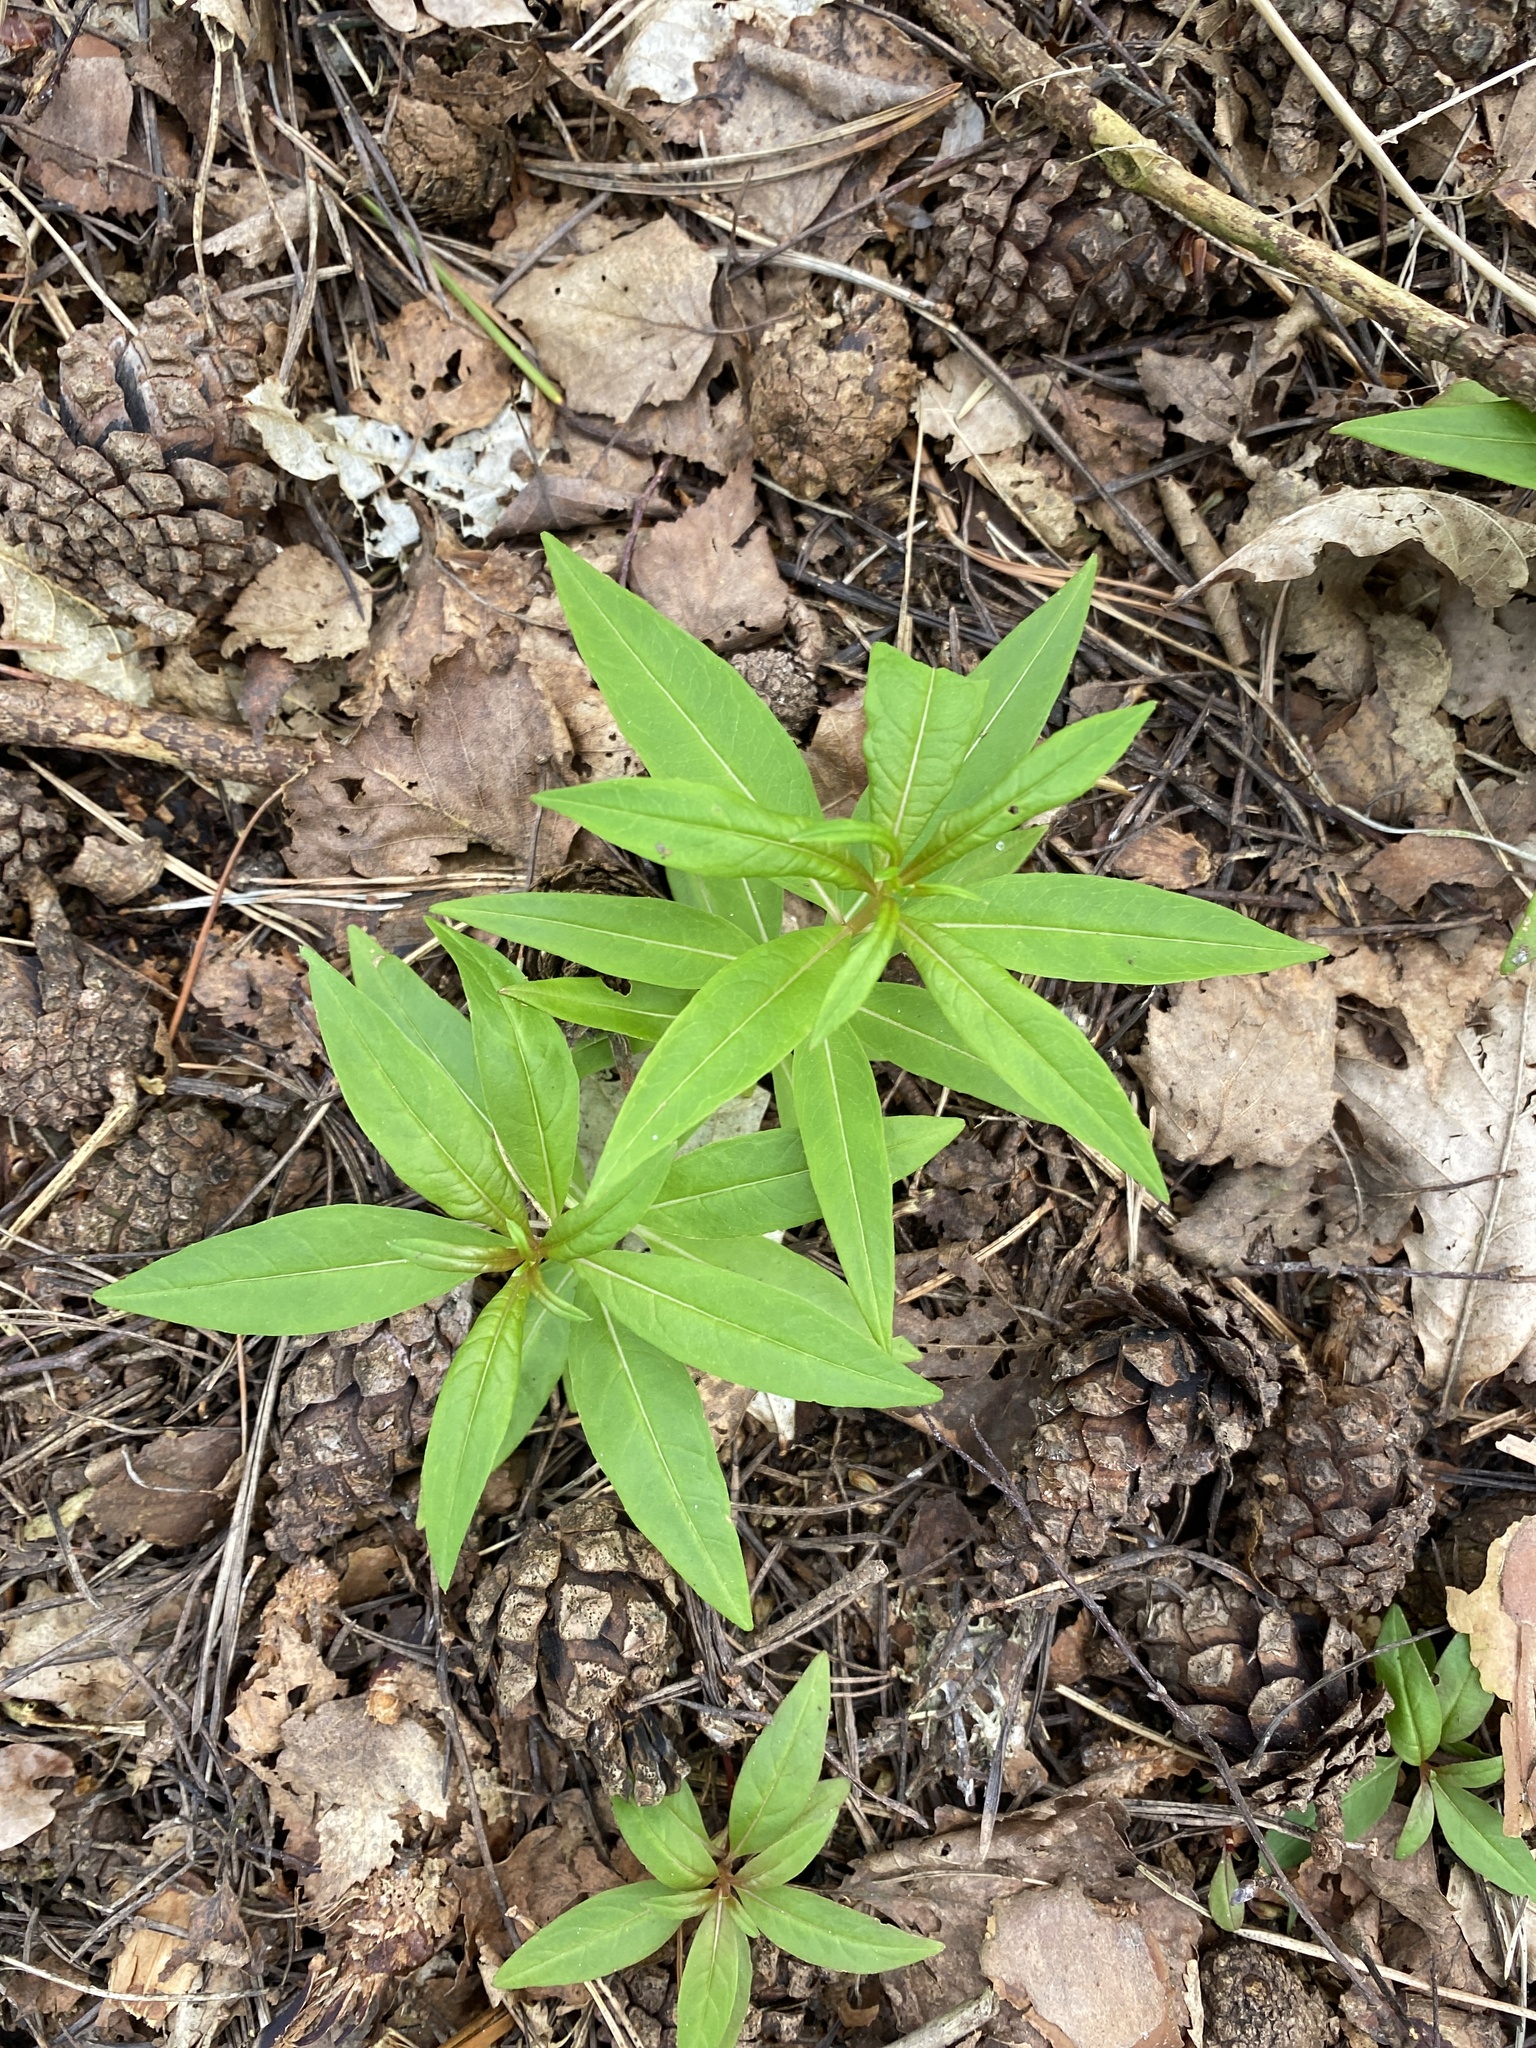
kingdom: Plantae
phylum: Tracheophyta
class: Magnoliopsida
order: Myrtales
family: Onagraceae
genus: Chamaenerion
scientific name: Chamaenerion angustifolium
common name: Fireweed
